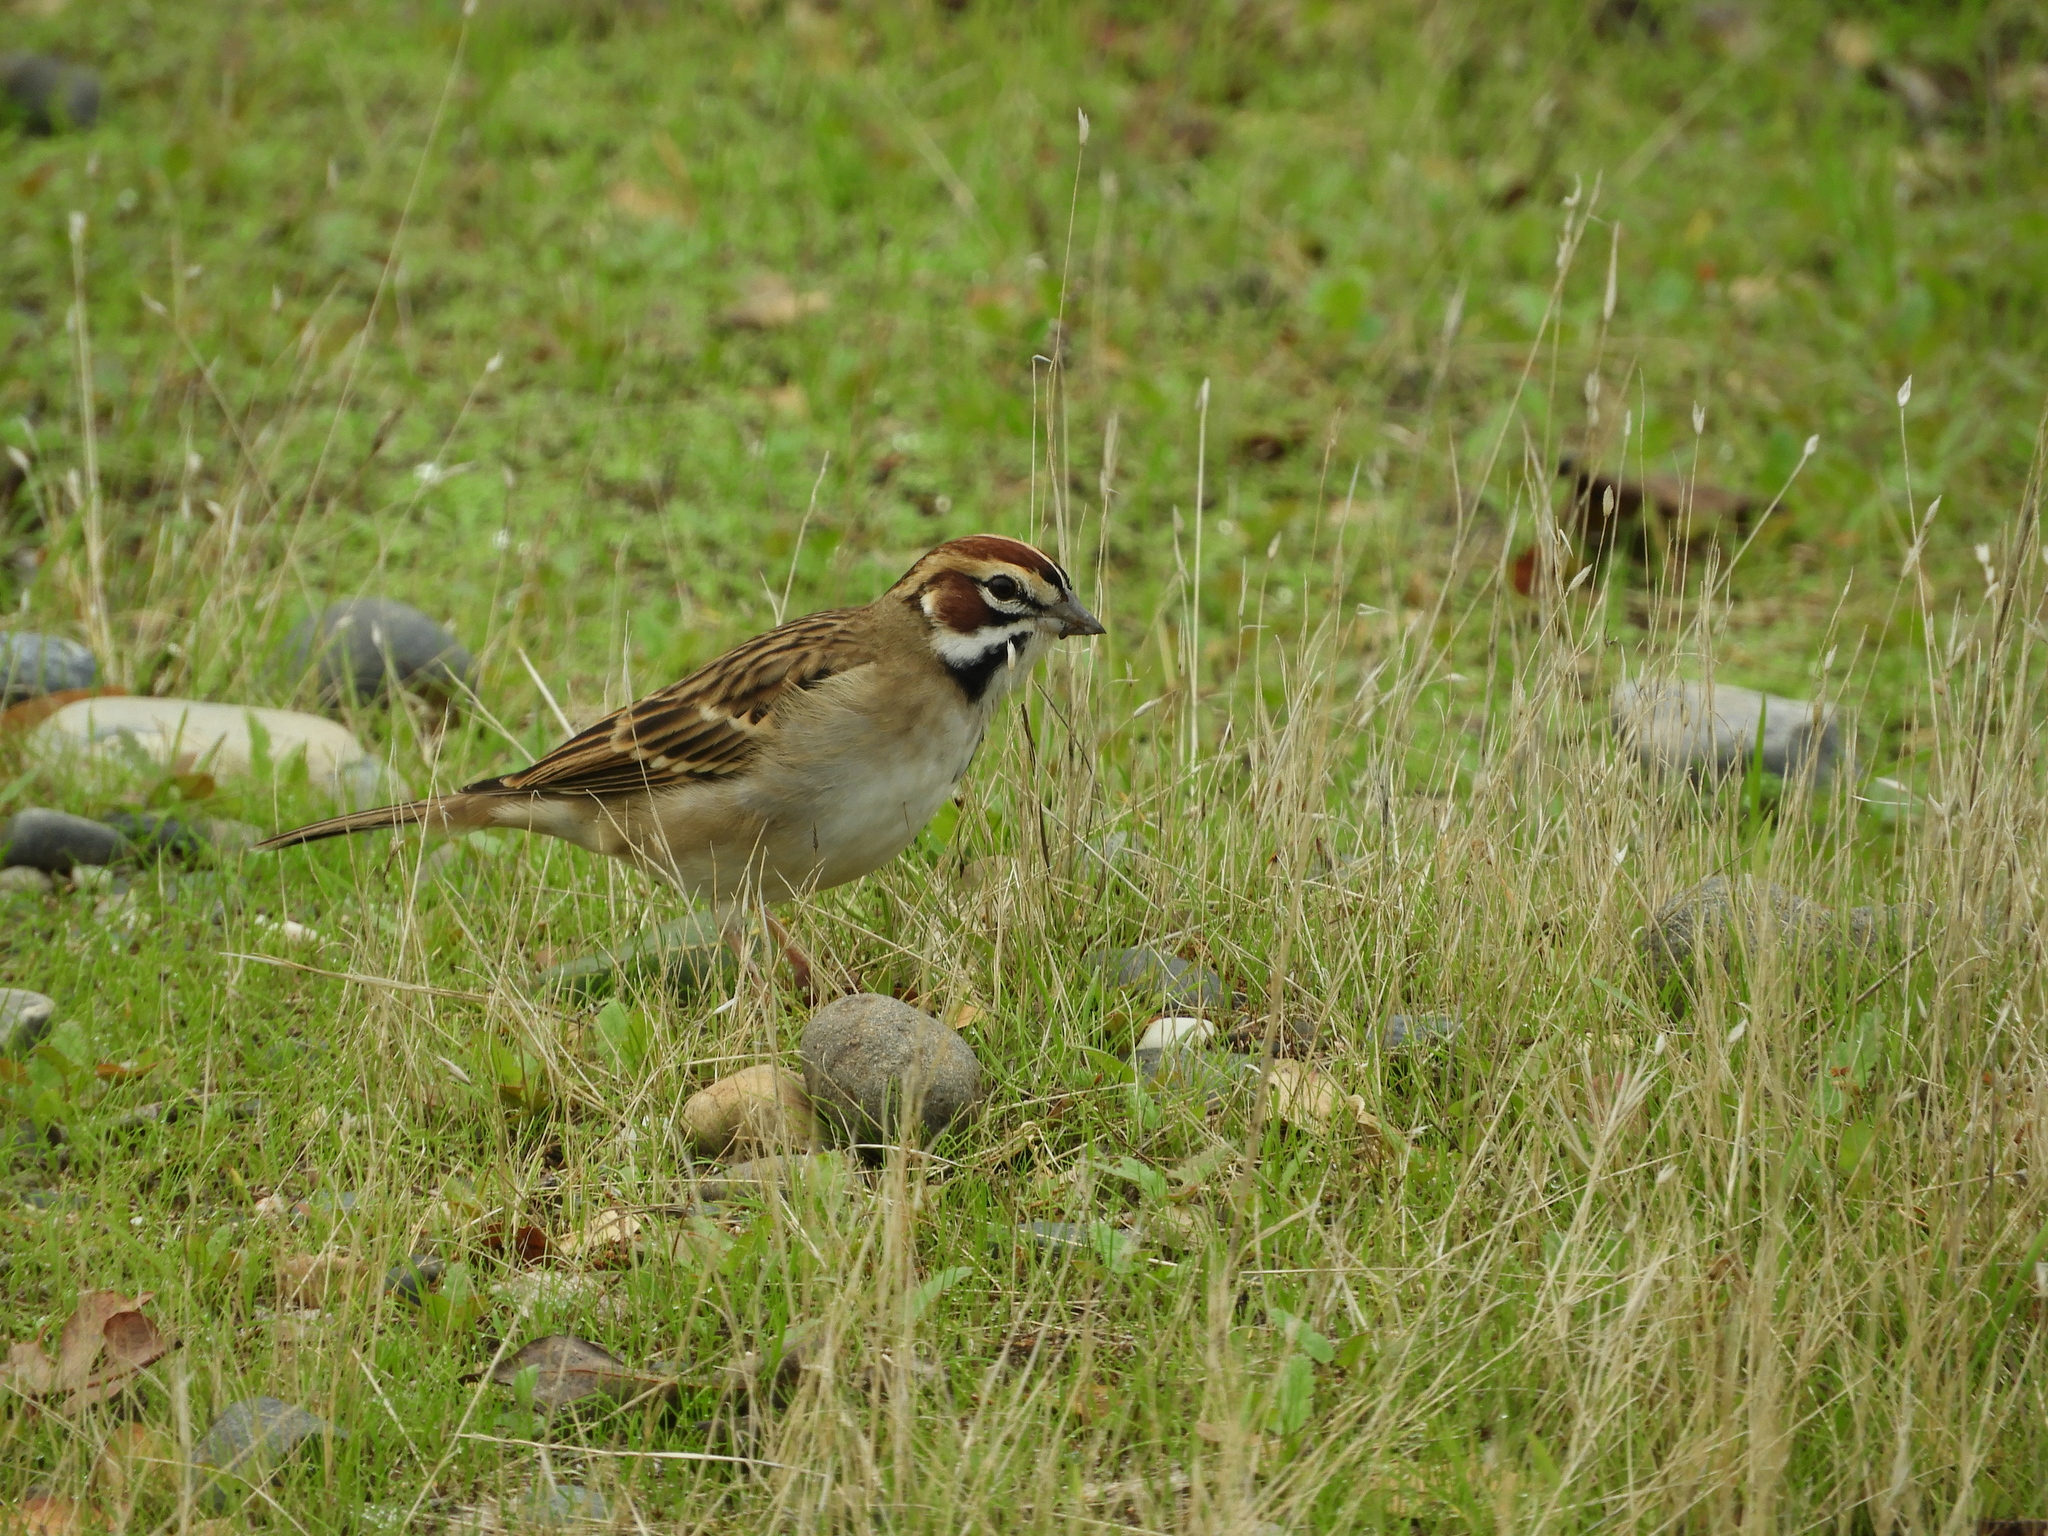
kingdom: Animalia
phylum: Chordata
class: Aves
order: Passeriformes
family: Passerellidae
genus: Chondestes
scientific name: Chondestes grammacus
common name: Lark sparrow
